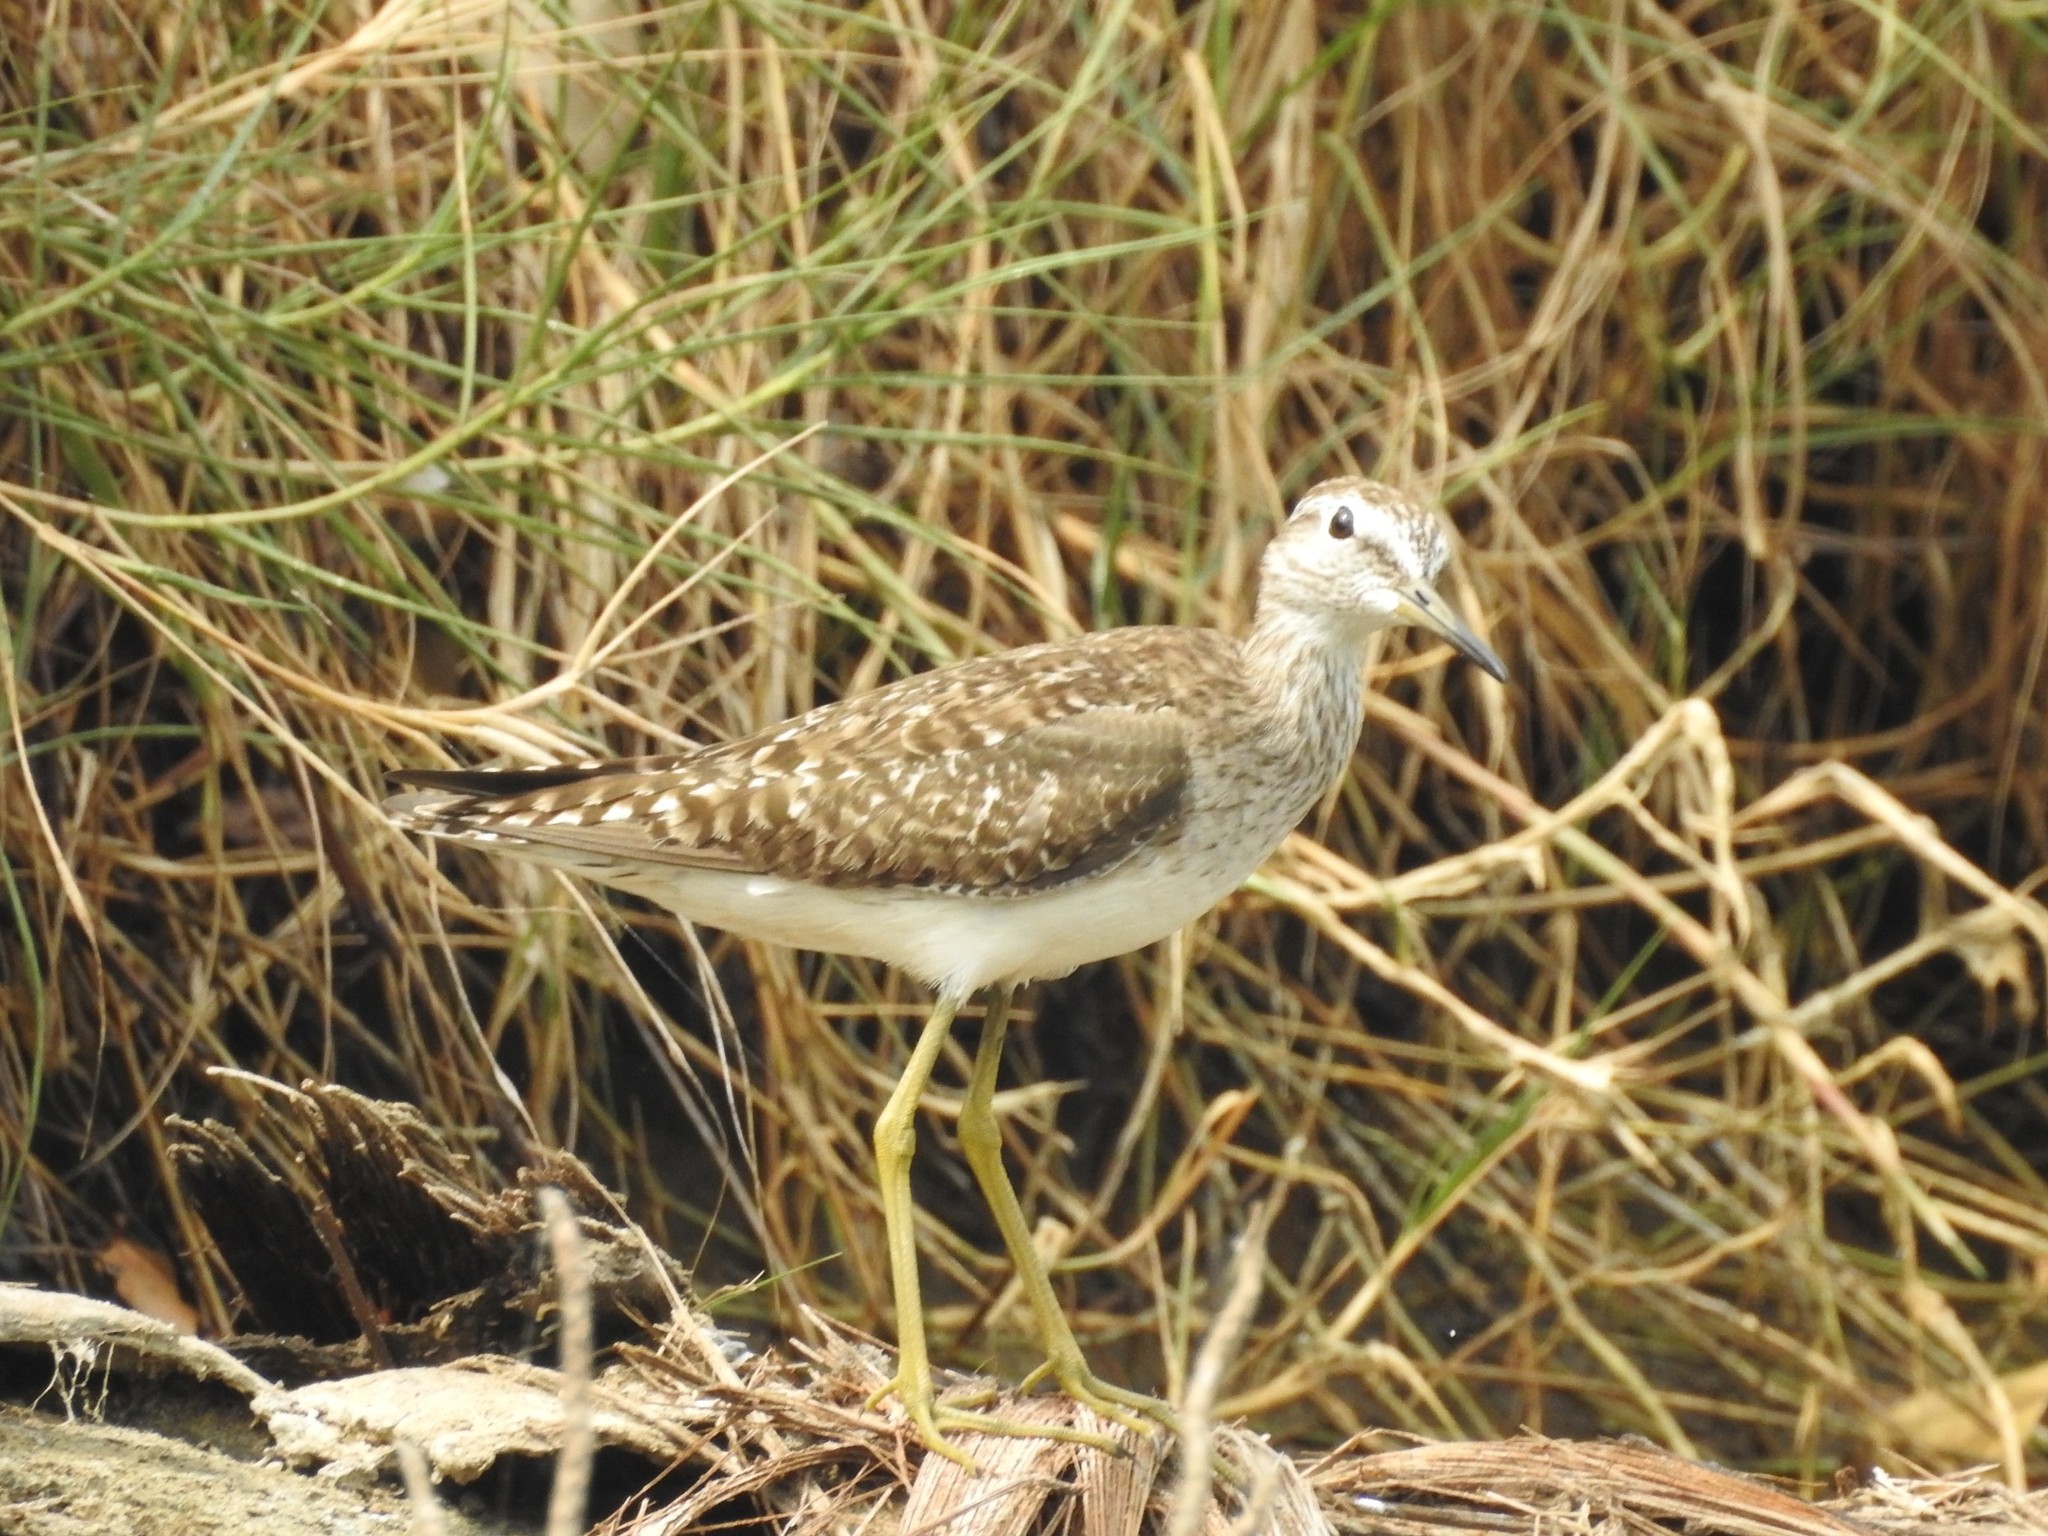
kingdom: Animalia
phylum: Chordata
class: Aves
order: Charadriiformes
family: Scolopacidae
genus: Tringa
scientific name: Tringa glareola
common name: Wood sandpiper
